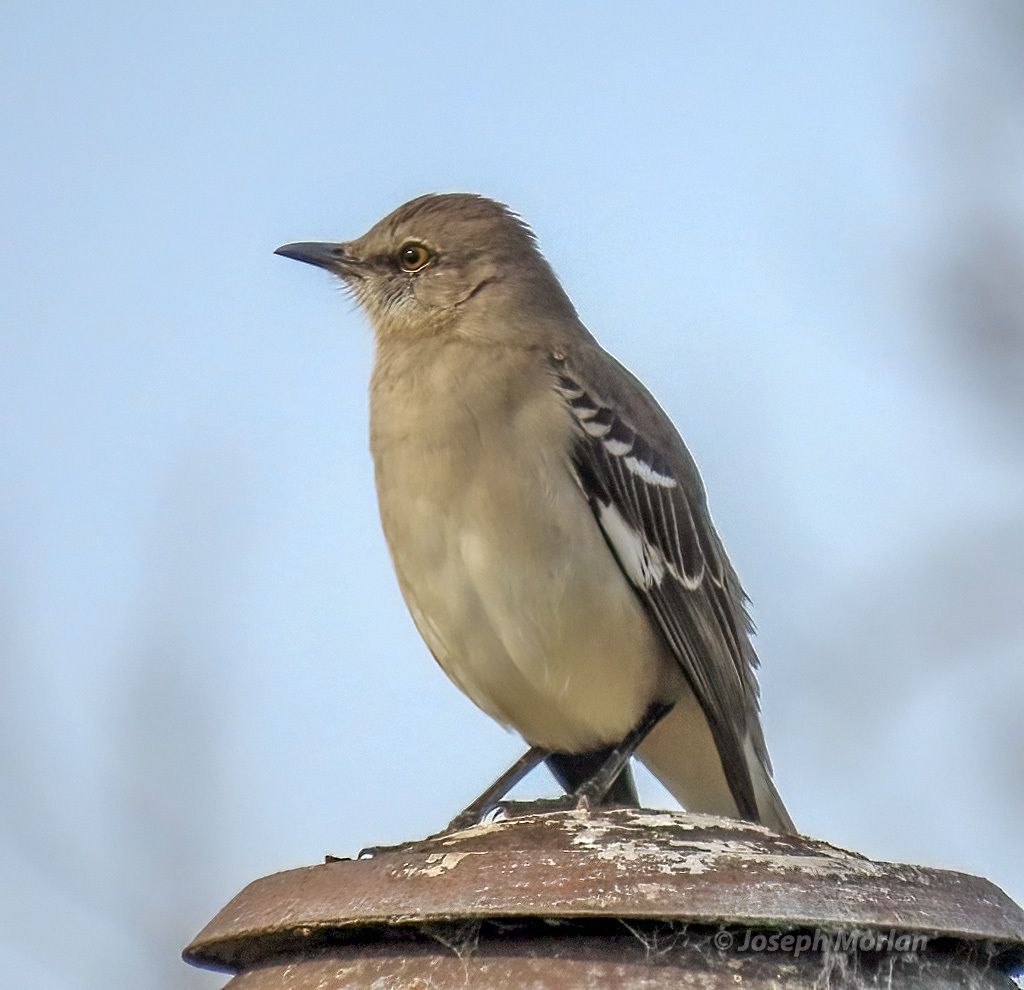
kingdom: Animalia
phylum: Chordata
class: Aves
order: Passeriformes
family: Mimidae
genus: Mimus
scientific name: Mimus polyglottos
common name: Northern mockingbird
